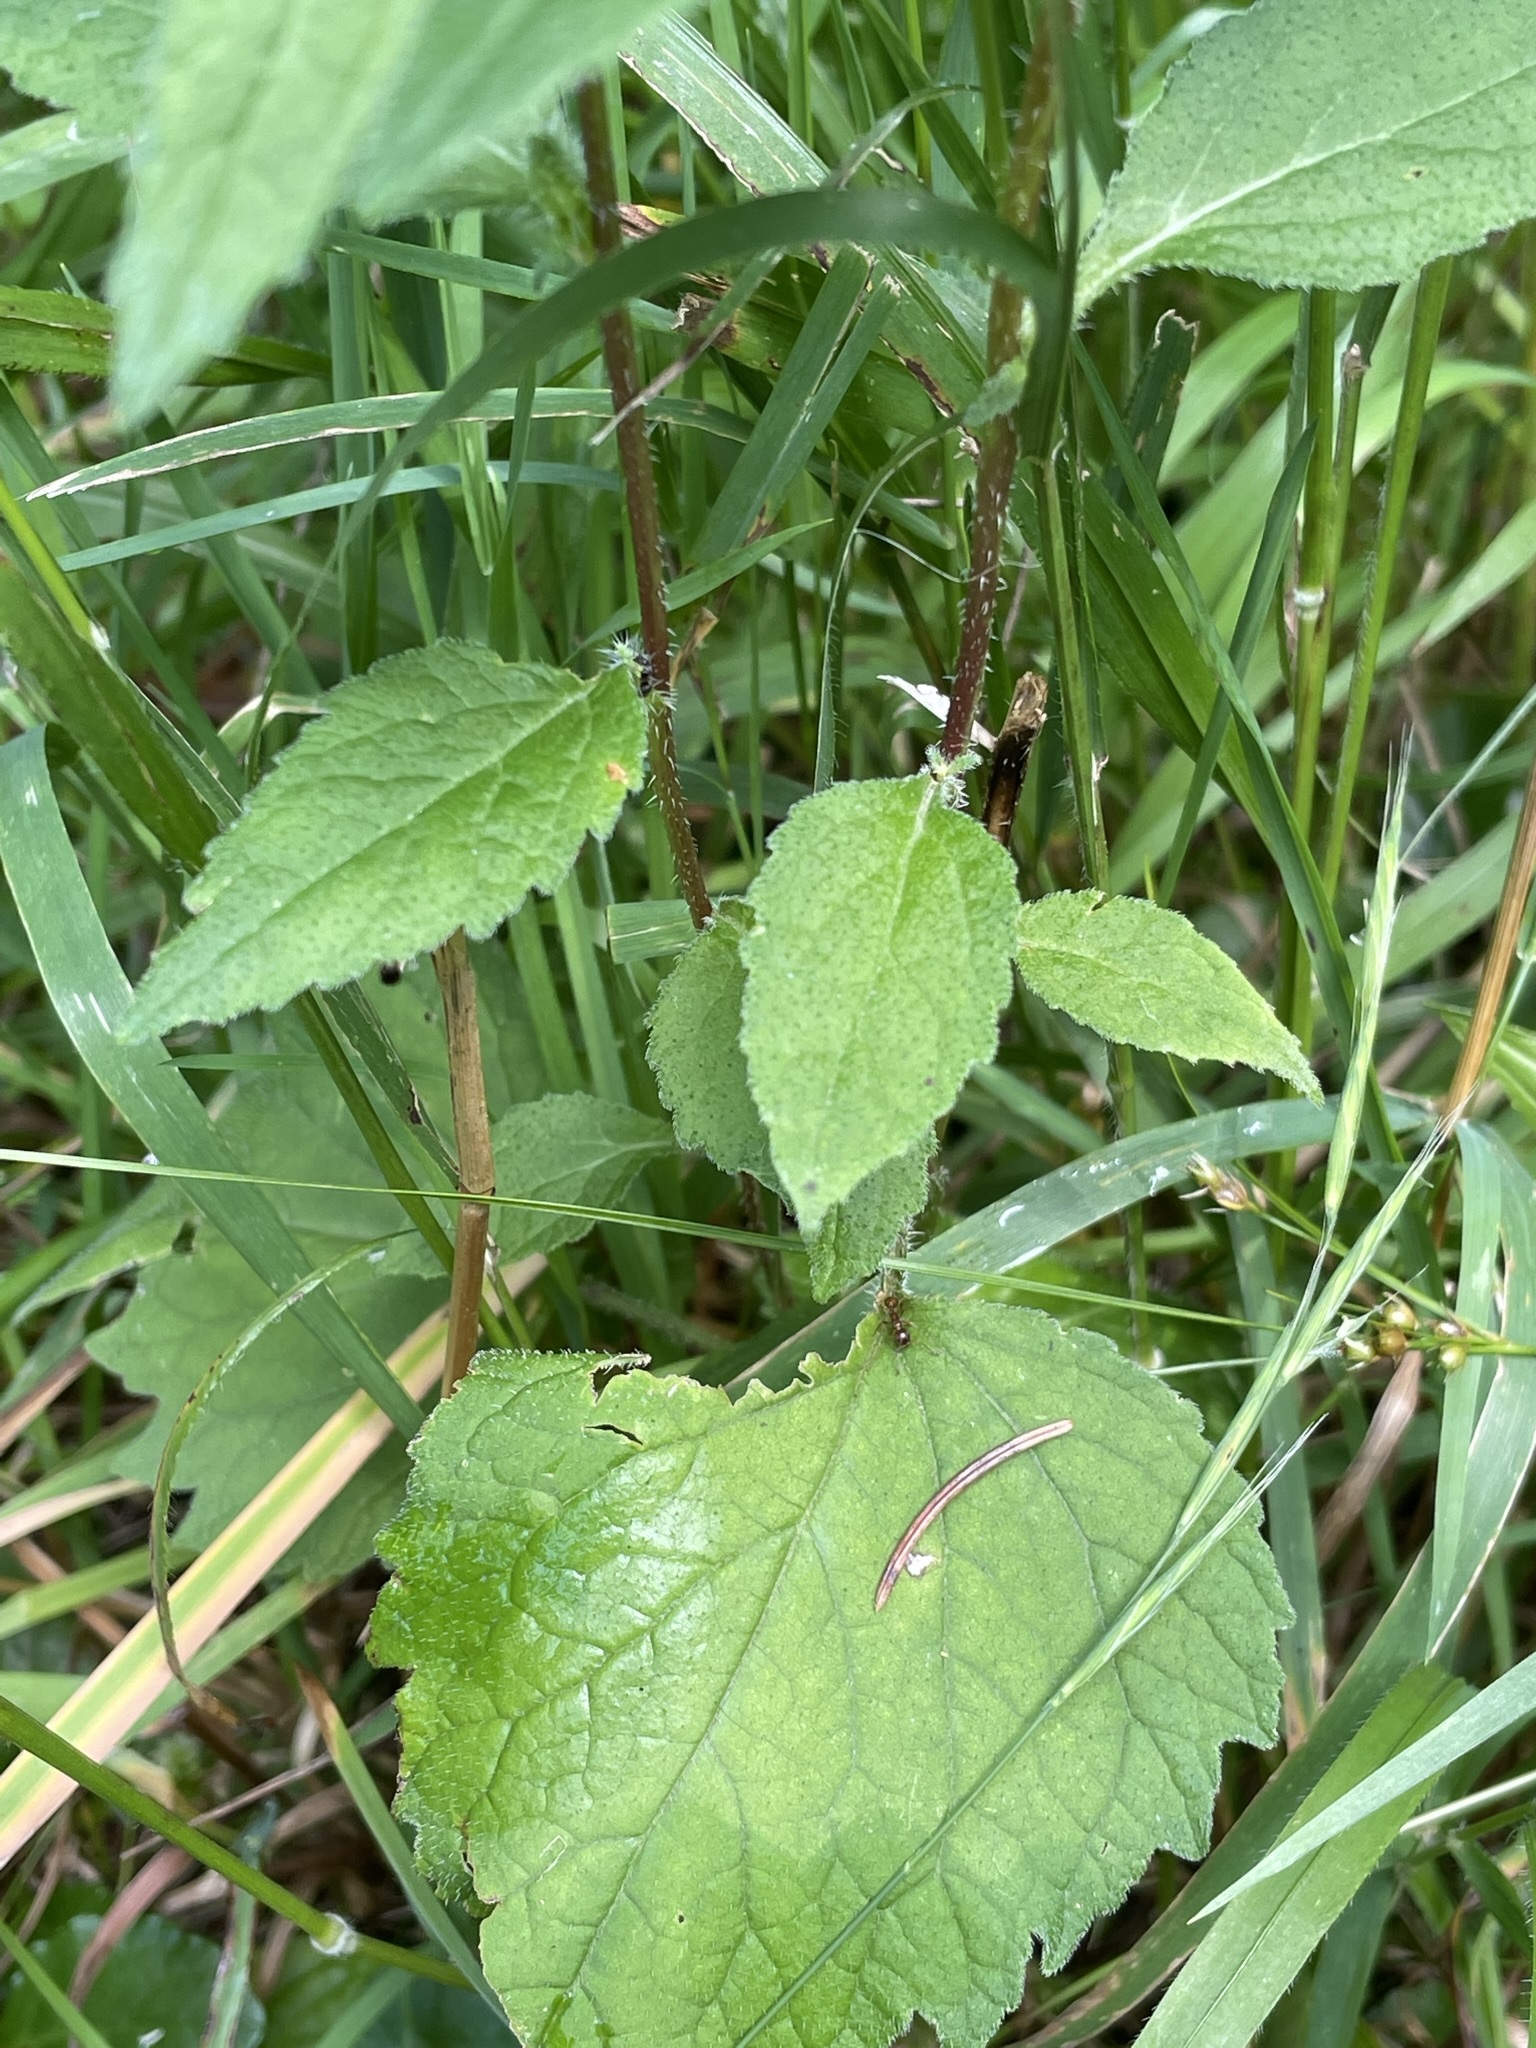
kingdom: Plantae
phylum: Tracheophyta
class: Magnoliopsida
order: Asterales
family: Campanulaceae
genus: Campanula
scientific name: Campanula trachelium
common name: Nettle-leaved bellflower
